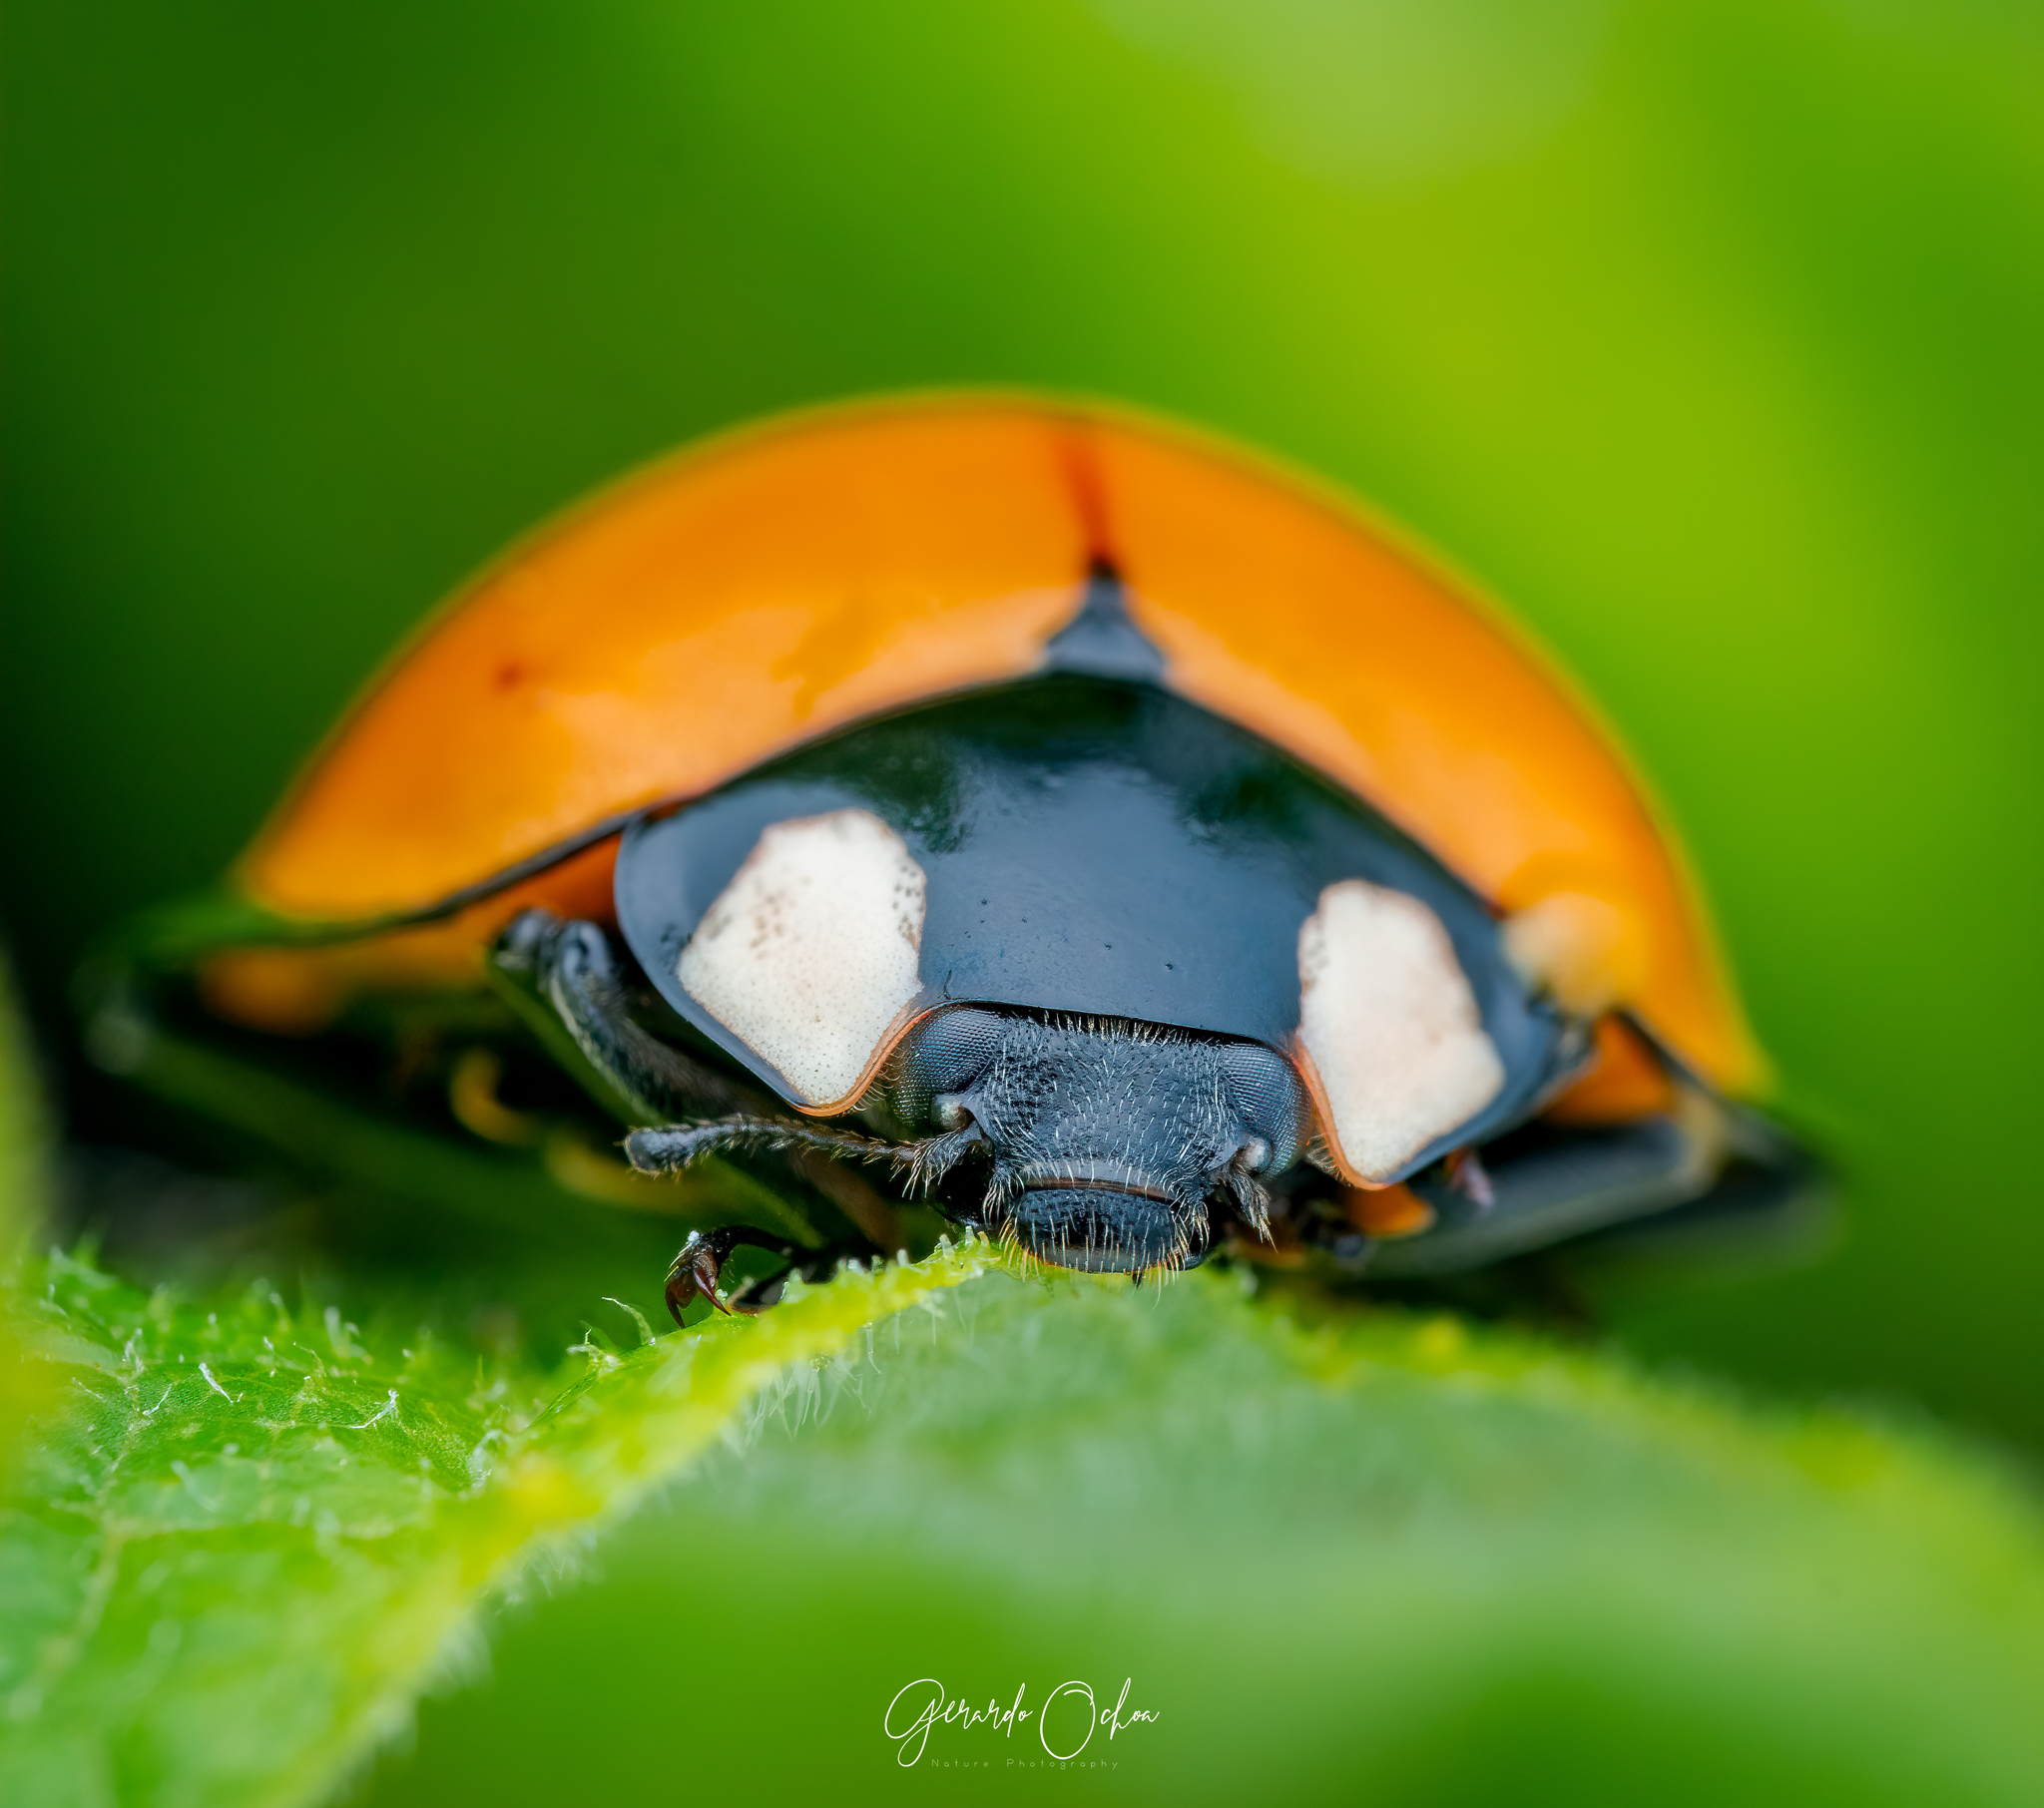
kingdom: Animalia
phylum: Arthropoda
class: Insecta
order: Coleoptera
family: Coccinellidae
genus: Anatis
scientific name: Anatis
